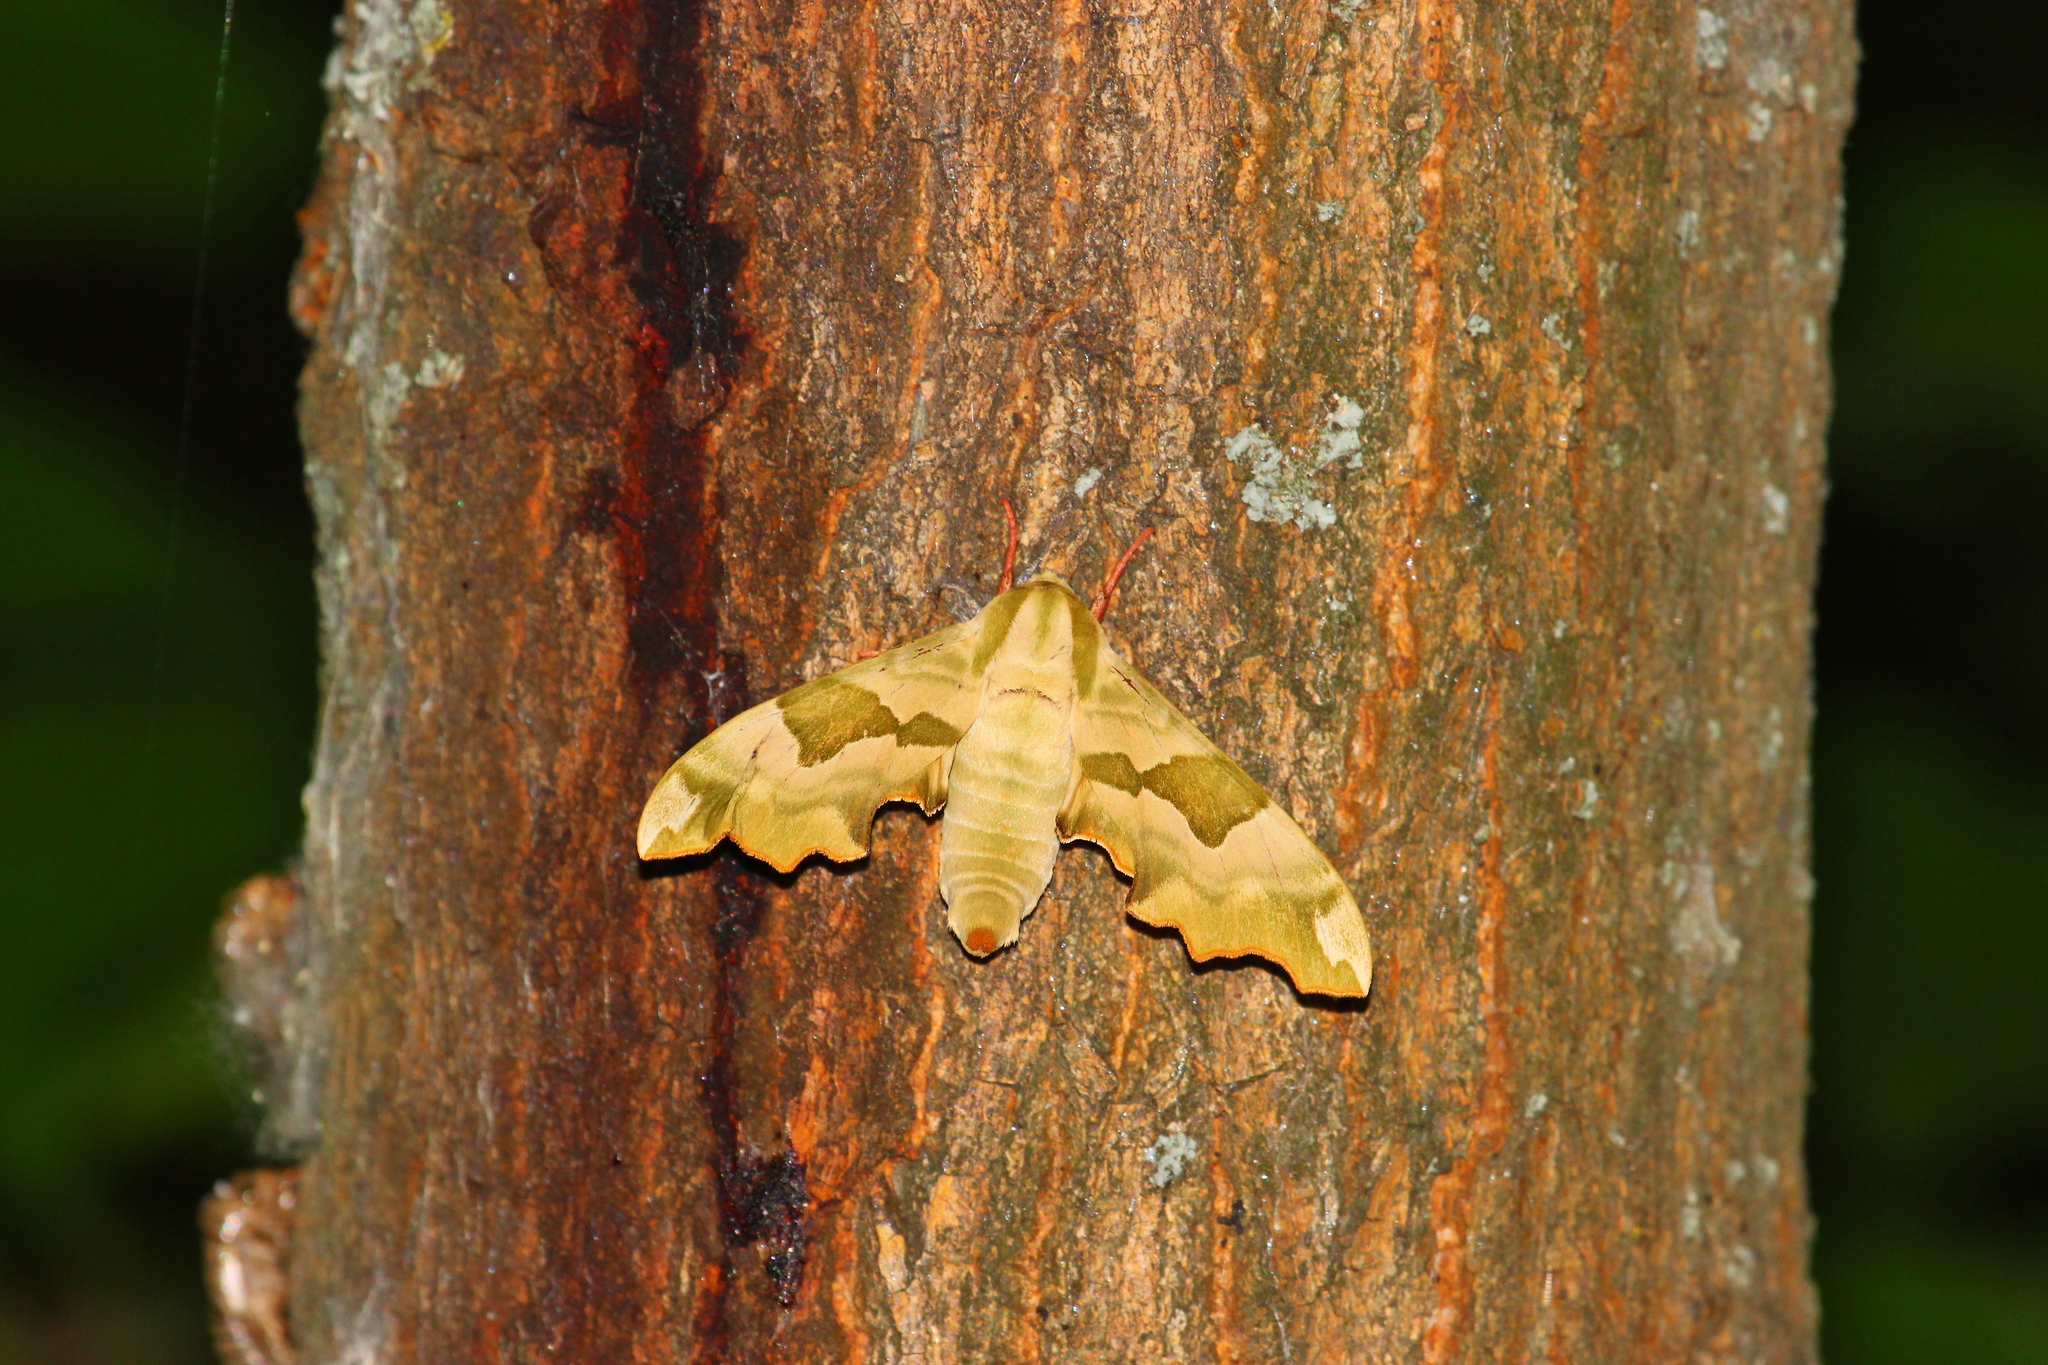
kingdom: Animalia
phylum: Arthropoda
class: Insecta
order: Lepidoptera
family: Sphingidae
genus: Mimas
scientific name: Mimas tiliae
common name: Lime hawk-moth
